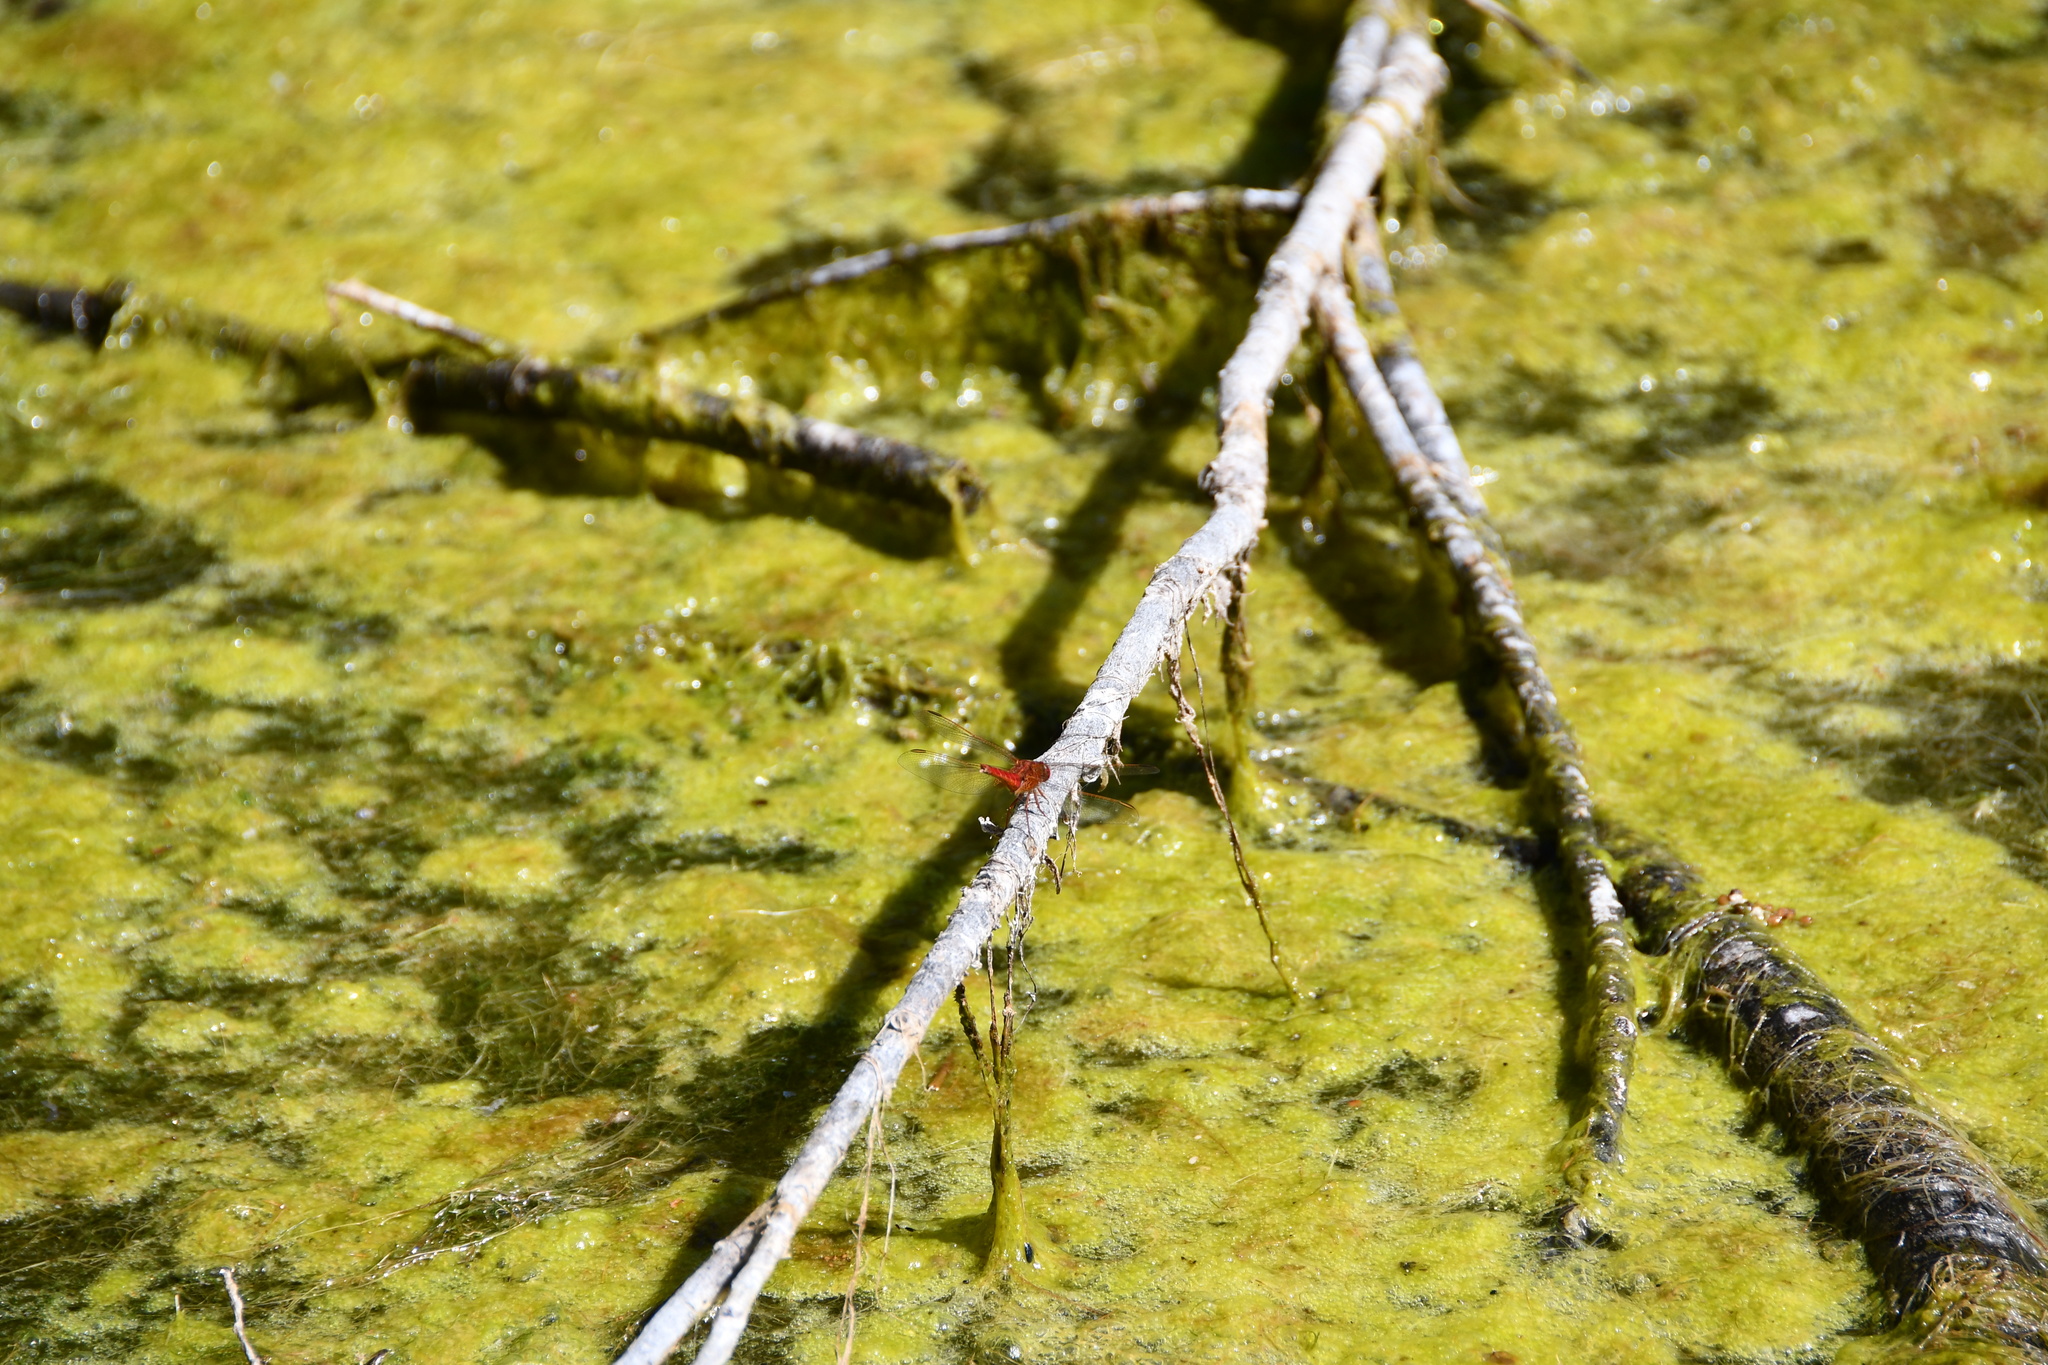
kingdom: Animalia
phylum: Arthropoda
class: Insecta
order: Odonata
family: Libellulidae
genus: Crocothemis
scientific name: Crocothemis erythraea
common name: Scarlet dragonfly
